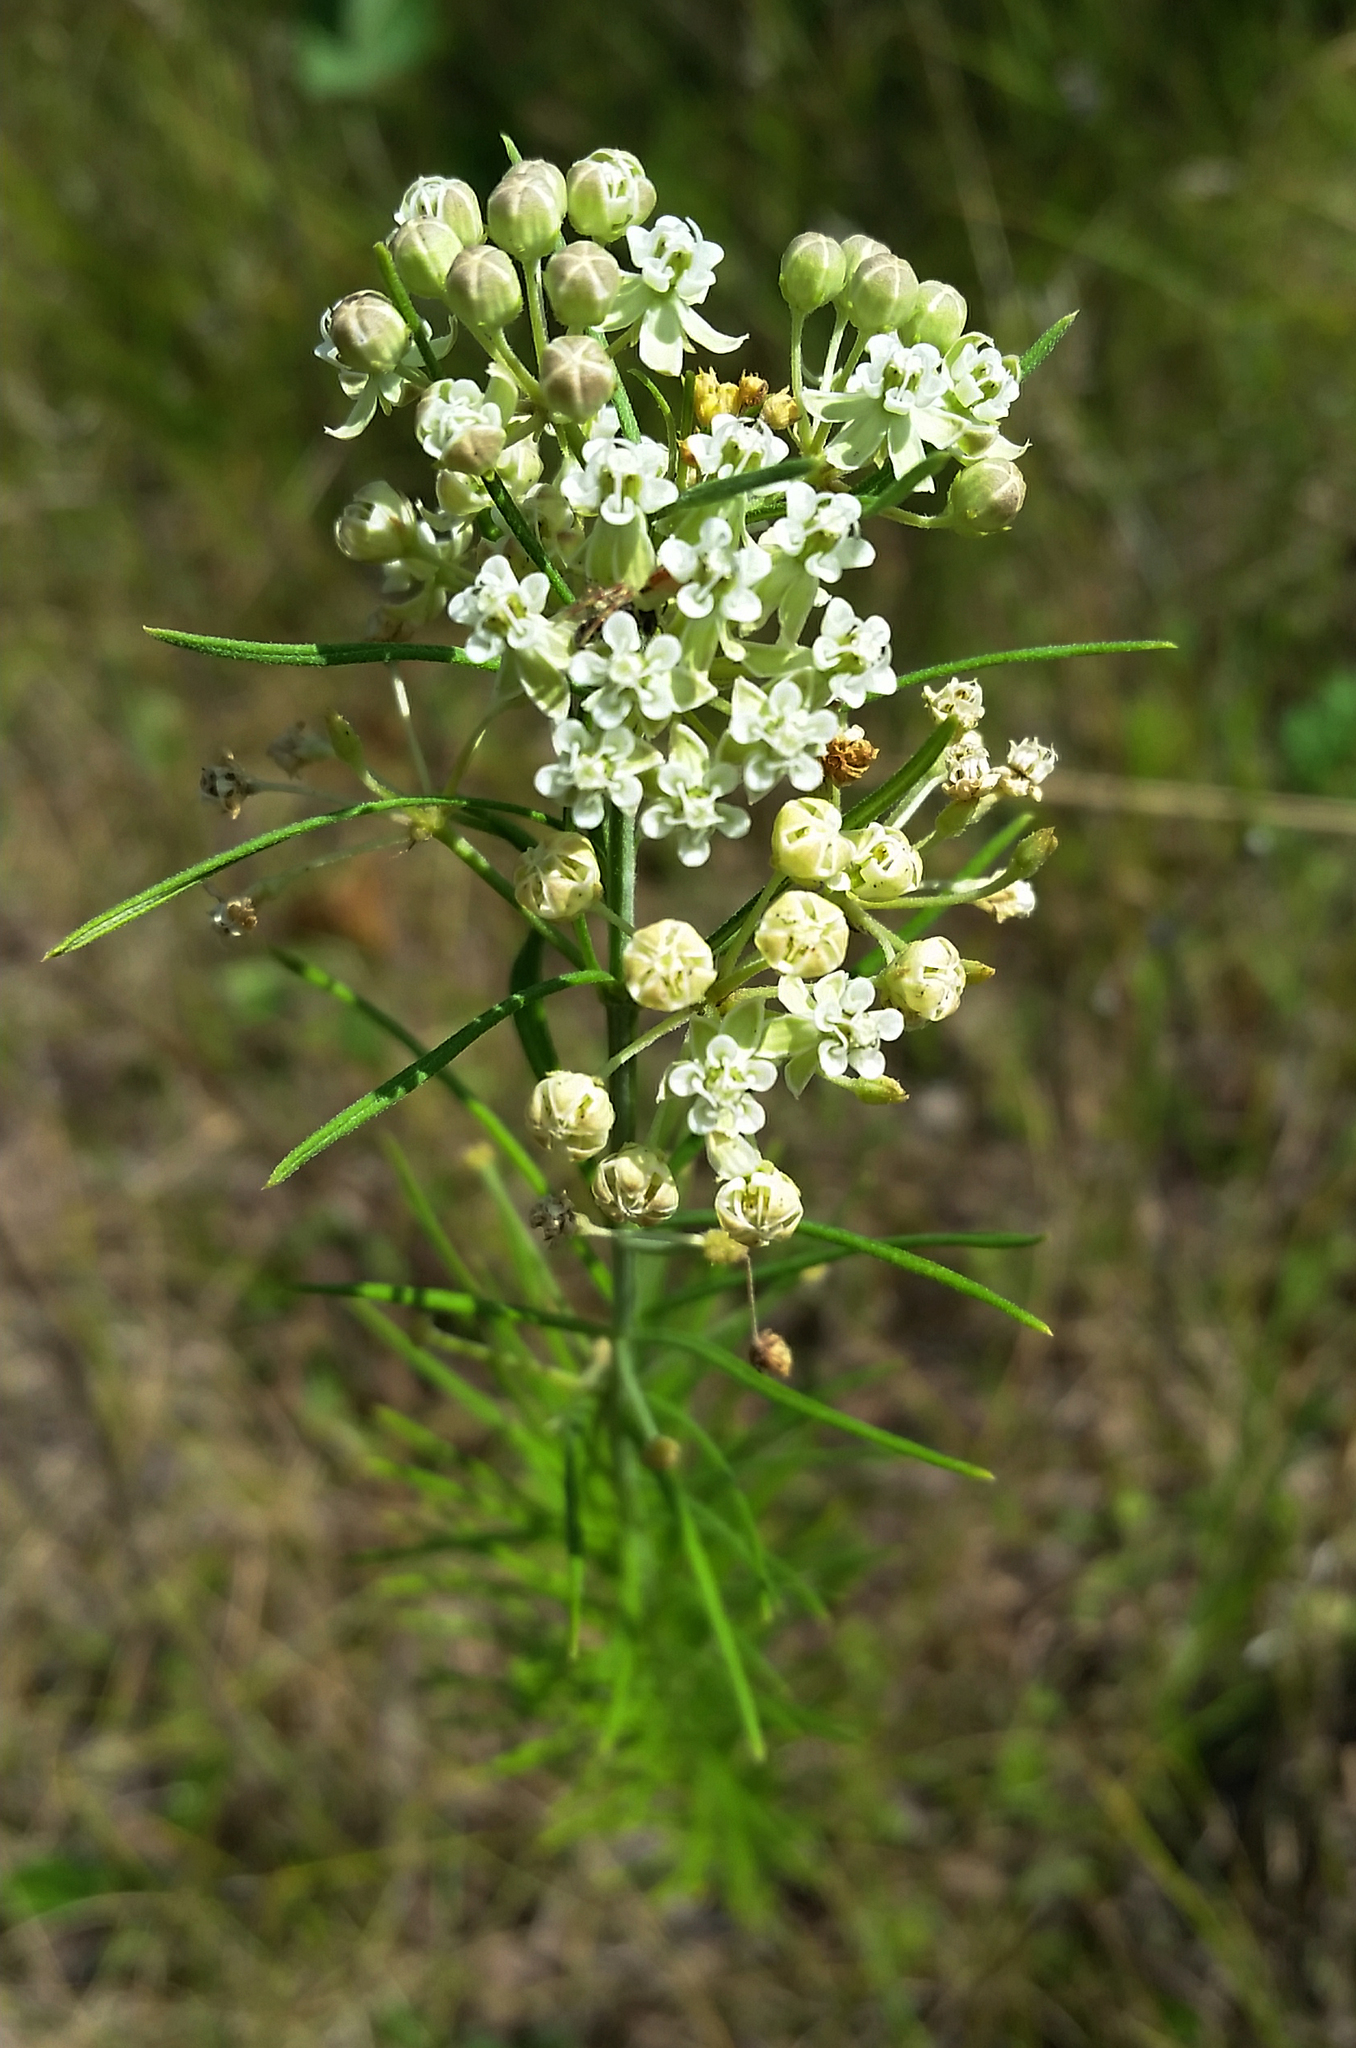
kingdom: Plantae
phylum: Tracheophyta
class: Magnoliopsida
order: Gentianales
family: Apocynaceae
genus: Asclepias
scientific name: Asclepias verticillata
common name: Eastern whorled milkweed
